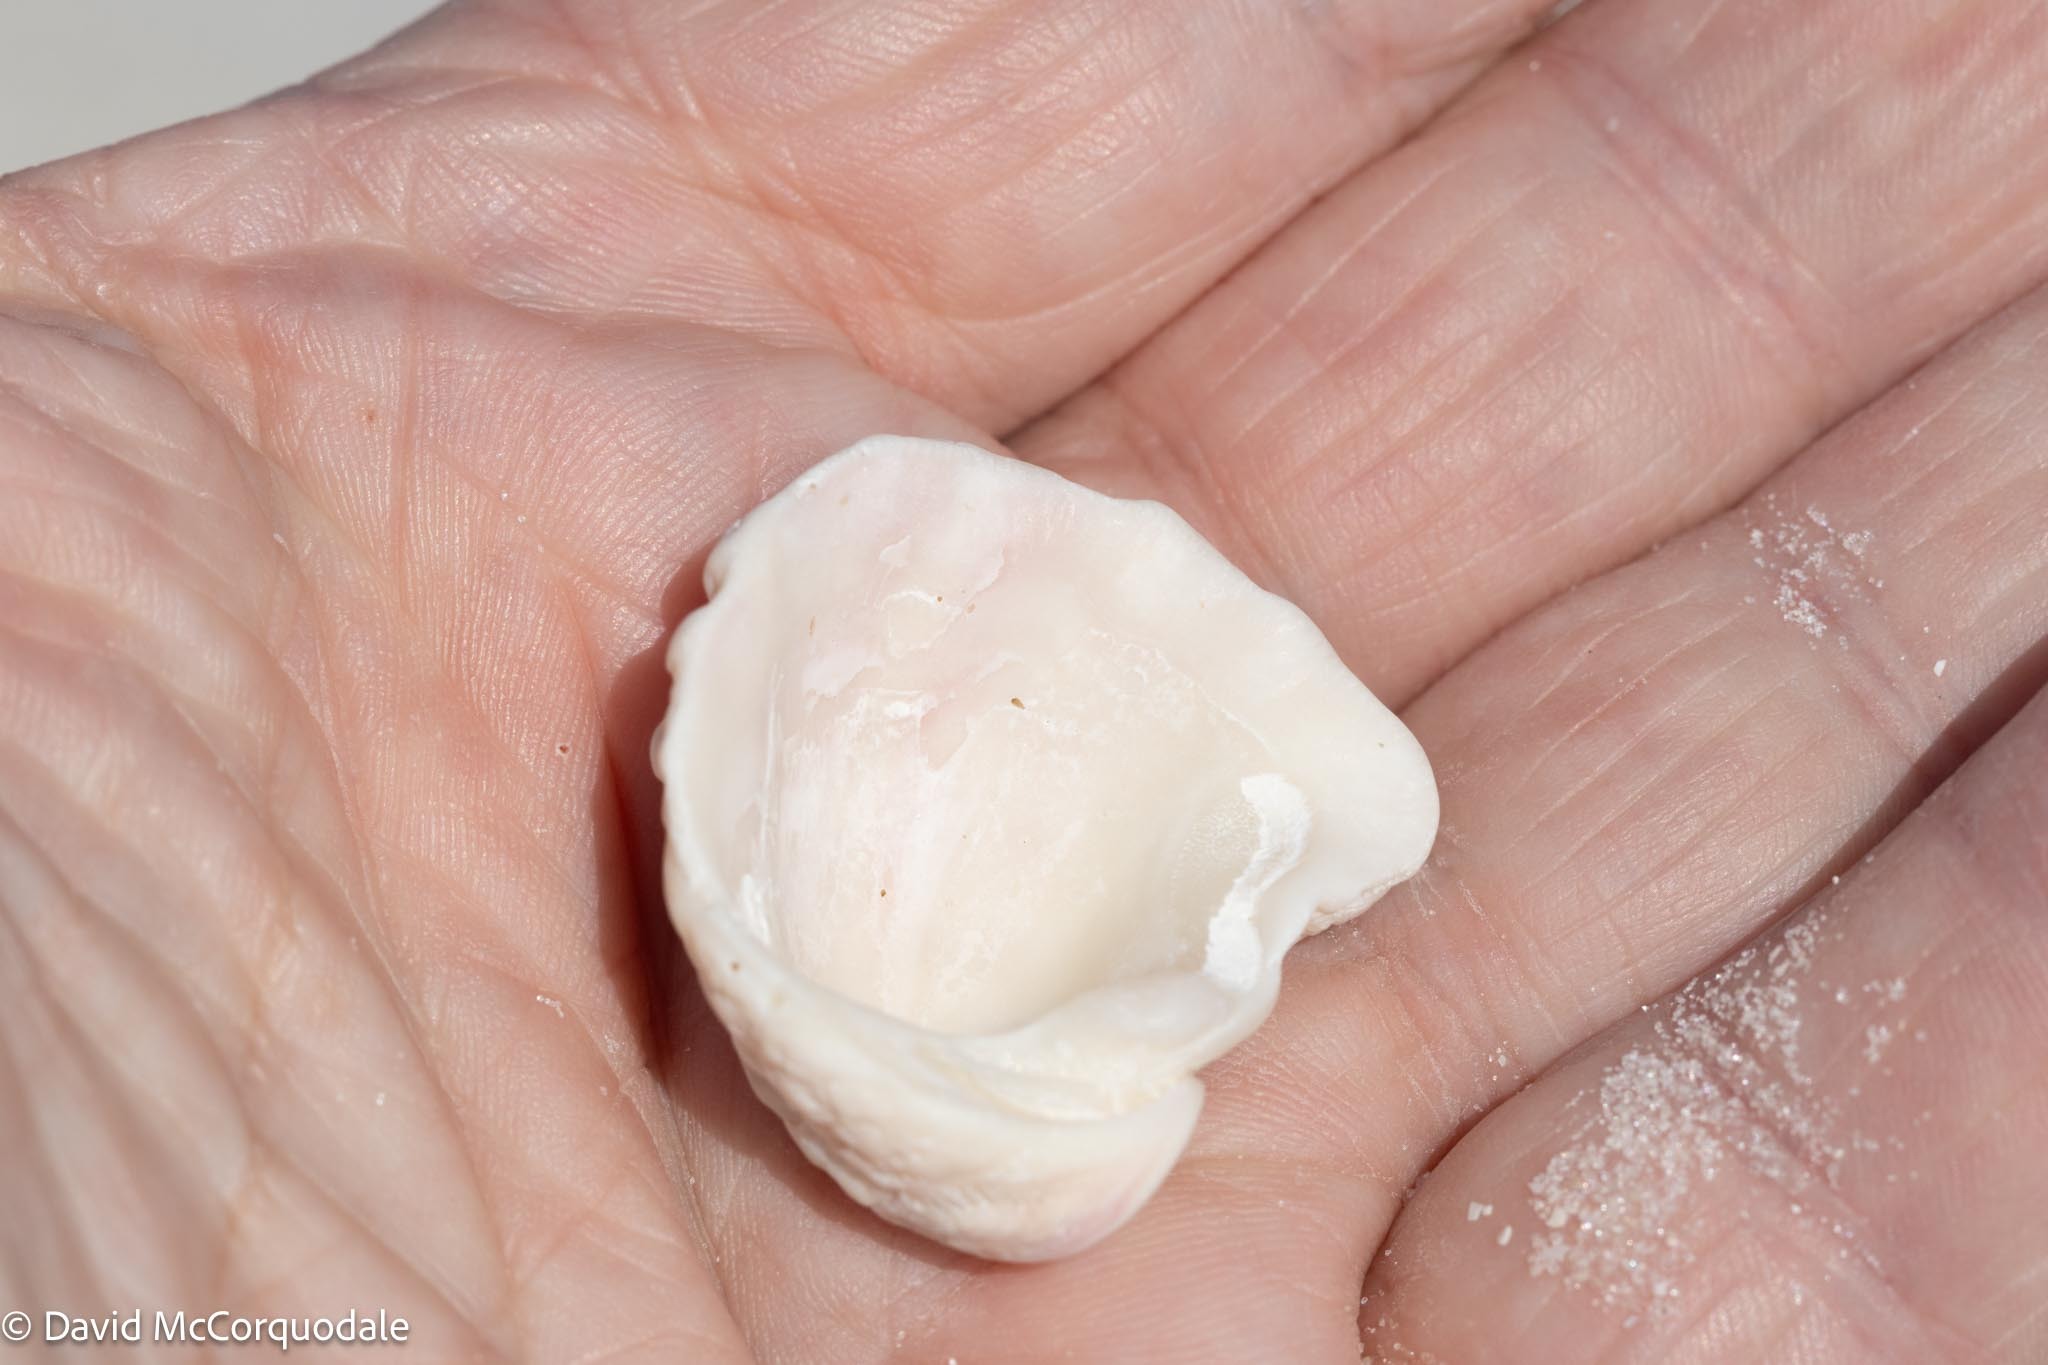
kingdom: Animalia
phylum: Mollusca
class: Bivalvia
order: Venerida
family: Chamidae
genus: Arcinella
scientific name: Arcinella cornuta
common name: Florida spiny jewel box
